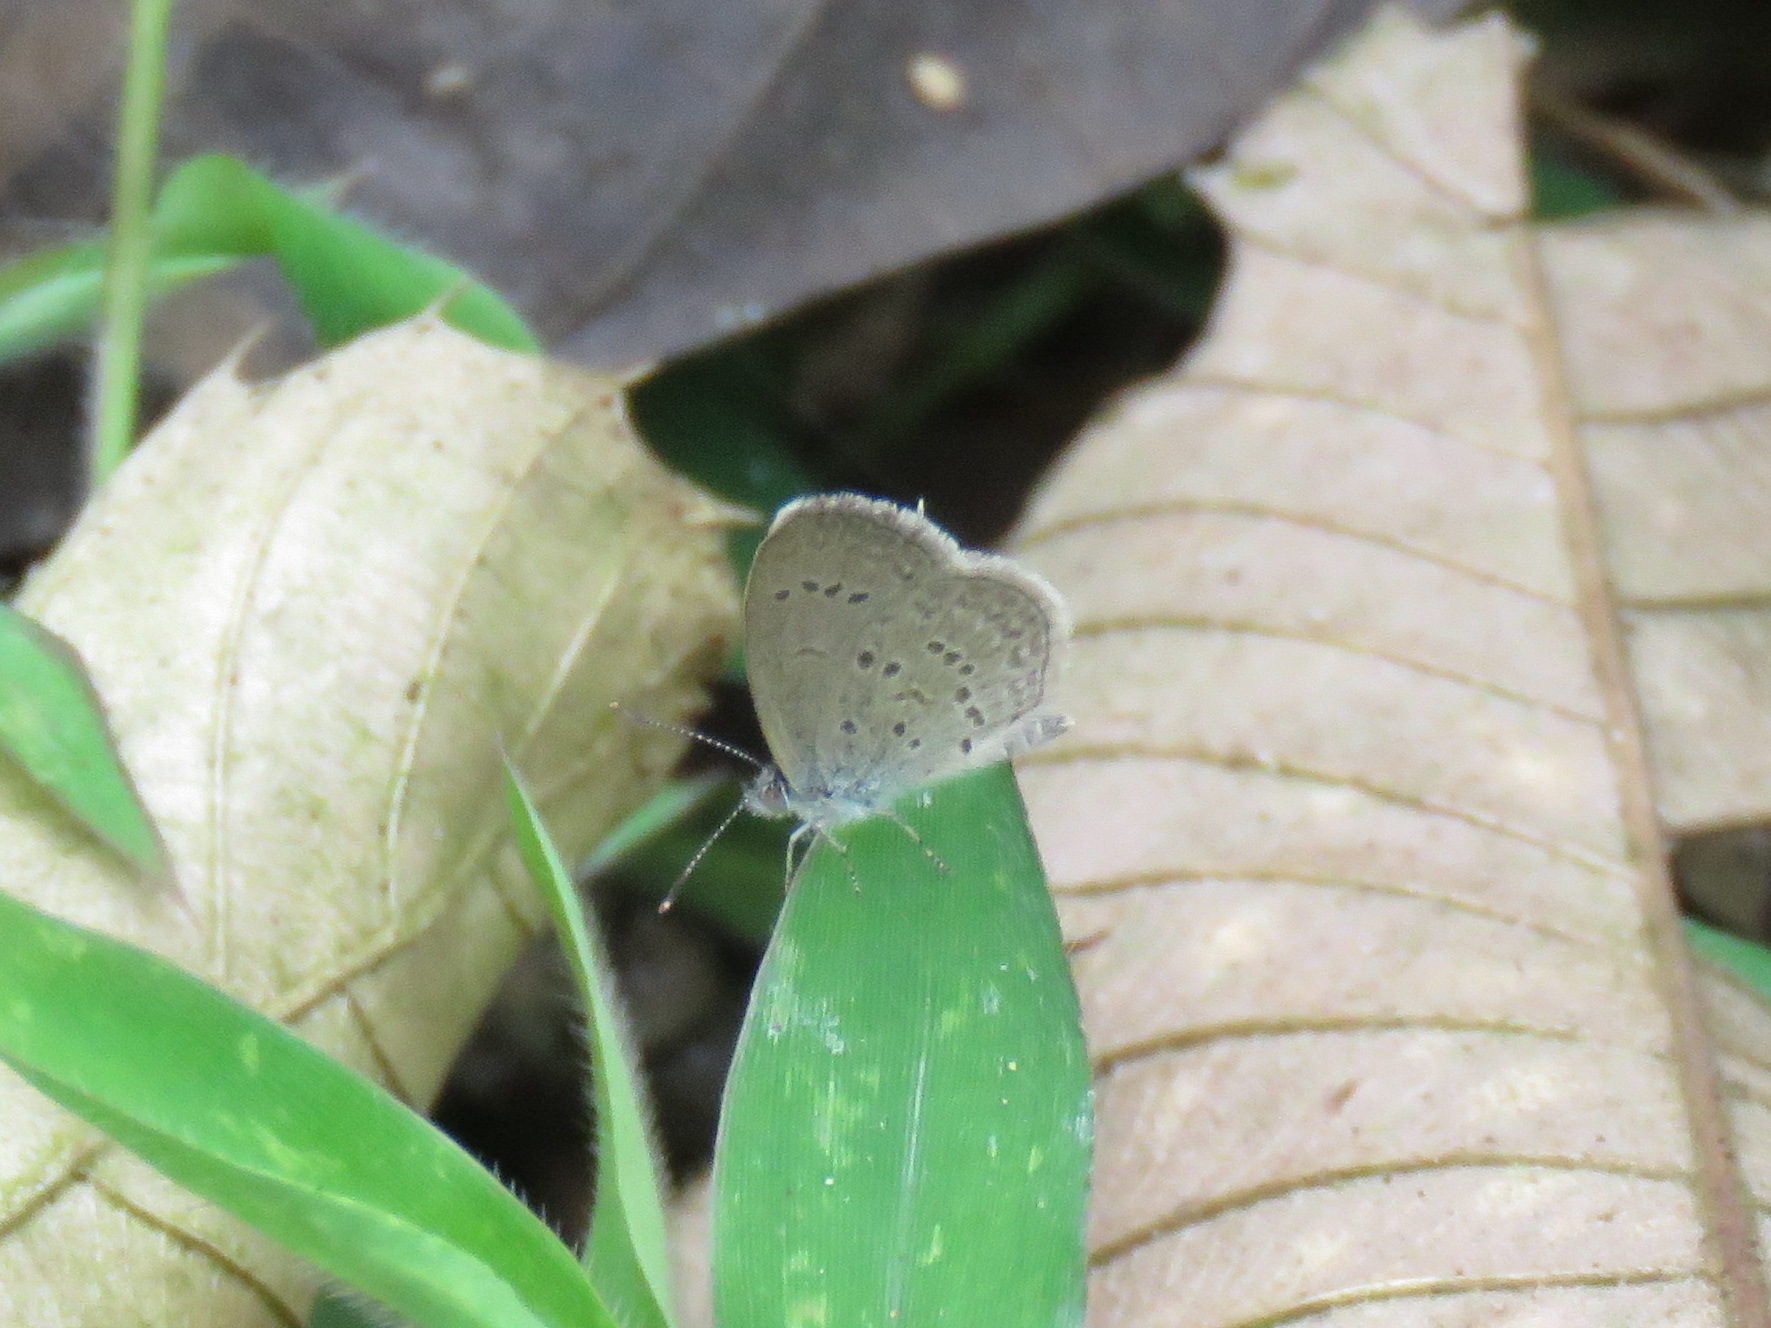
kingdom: Animalia
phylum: Arthropoda
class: Insecta
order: Lepidoptera
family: Lycaenidae
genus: Zizina
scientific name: Zizina otis
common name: Lesser grass blue
